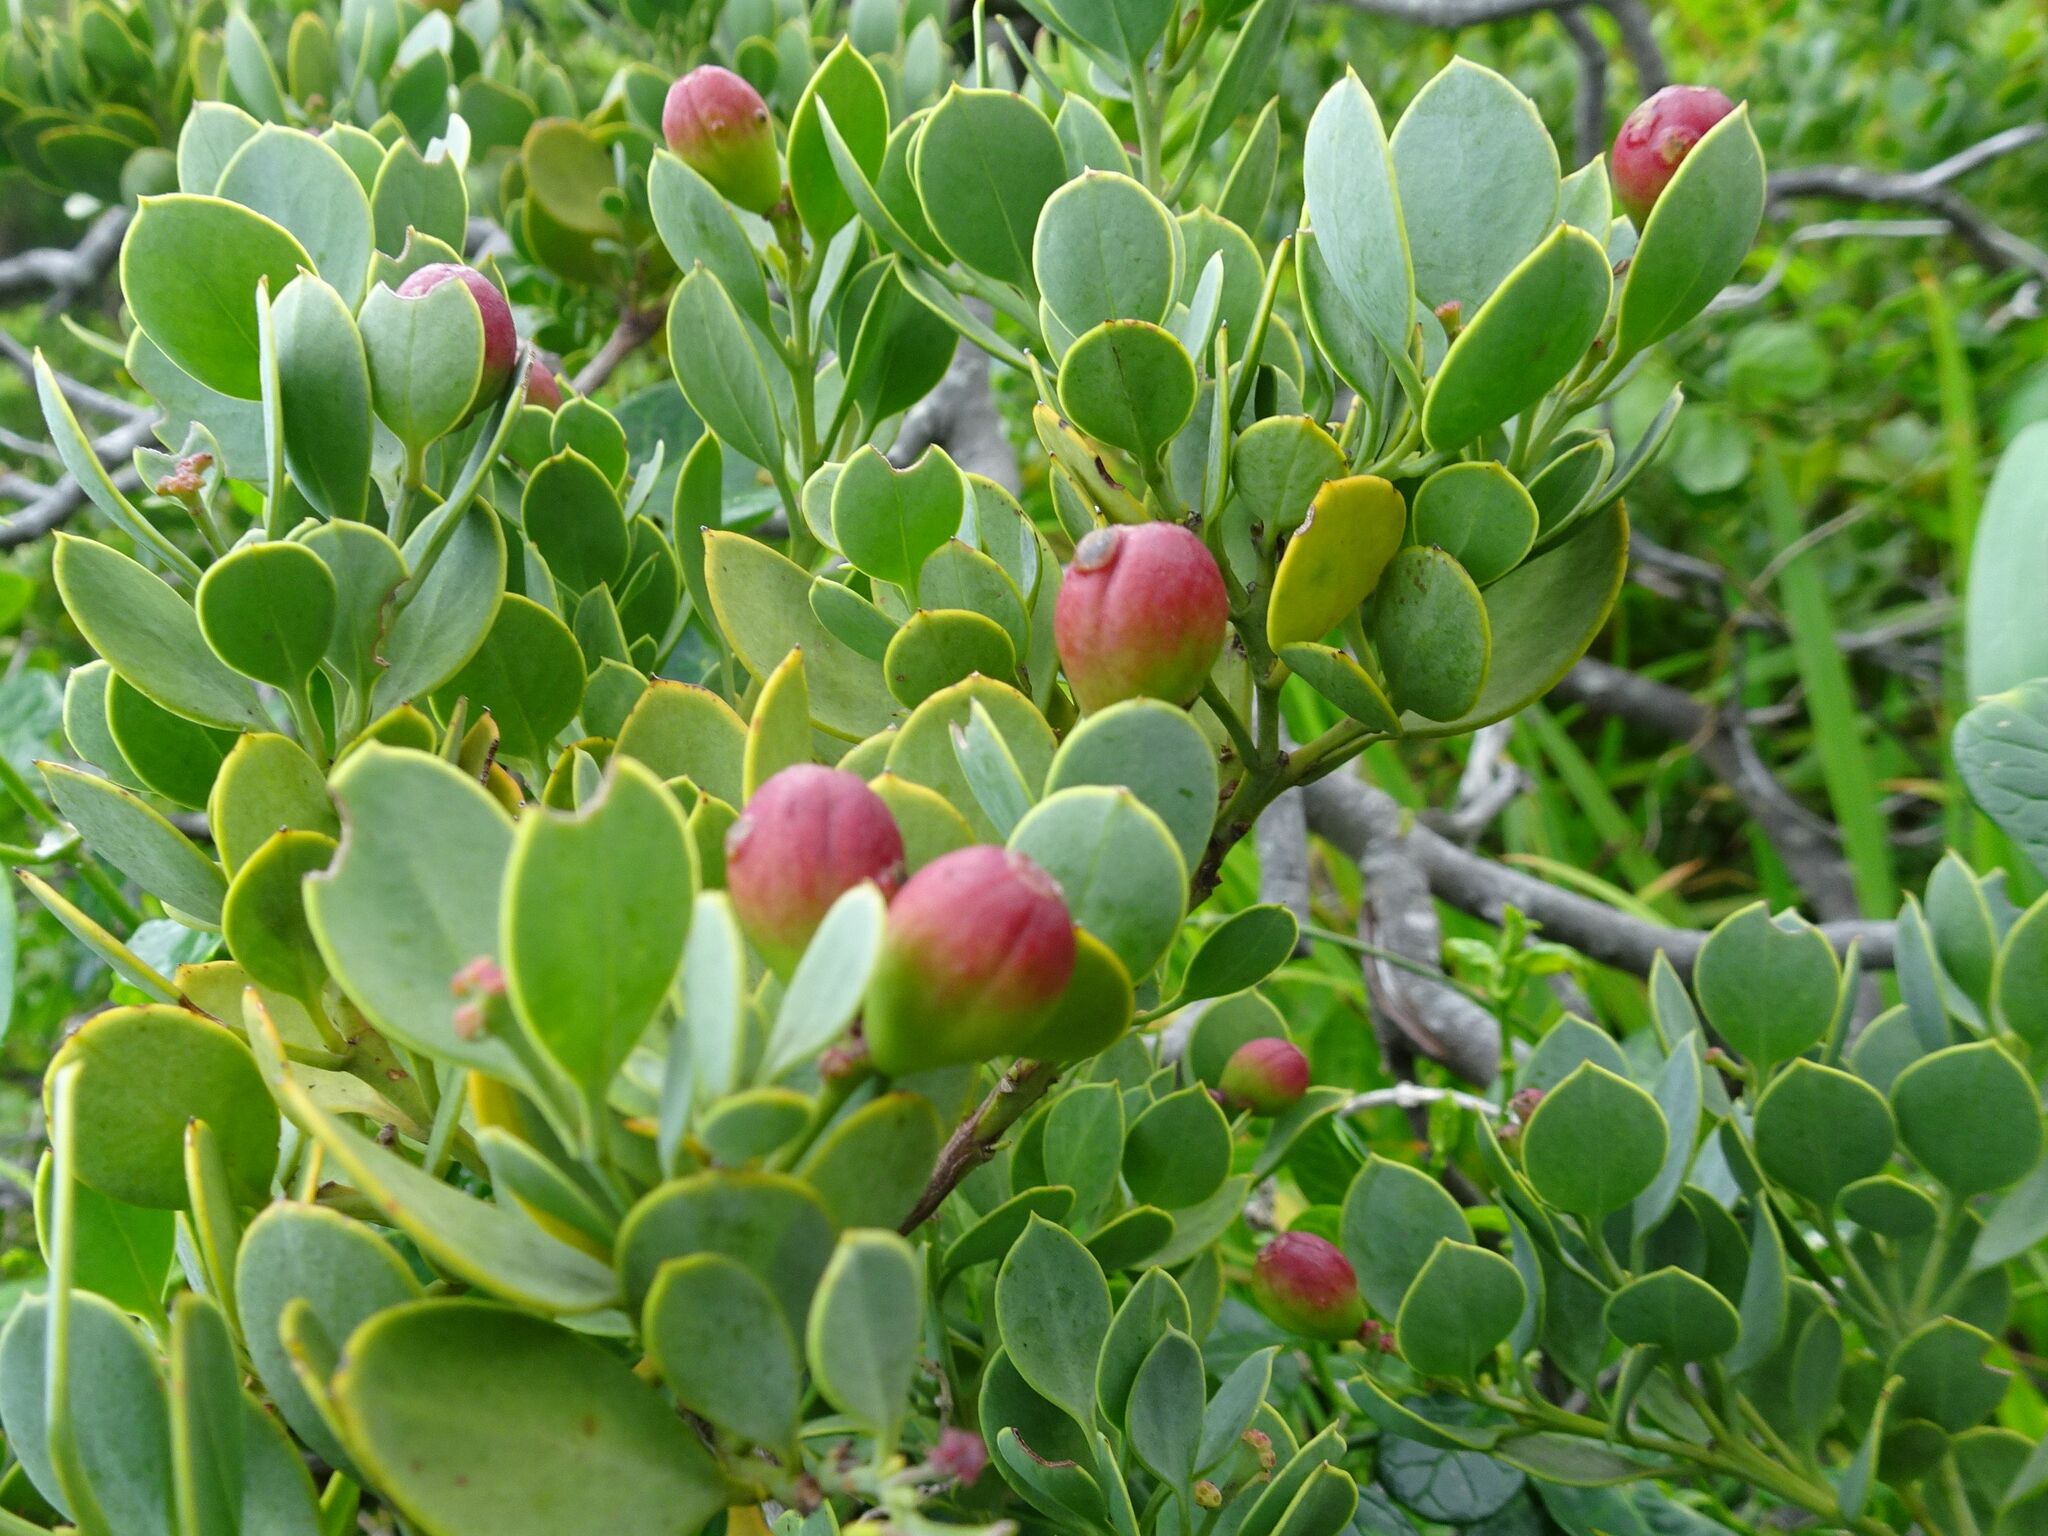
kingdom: Plantae
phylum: Tracheophyta
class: Magnoliopsida
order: Santalales
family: Santalaceae
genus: Osyris
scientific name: Osyris compressa
